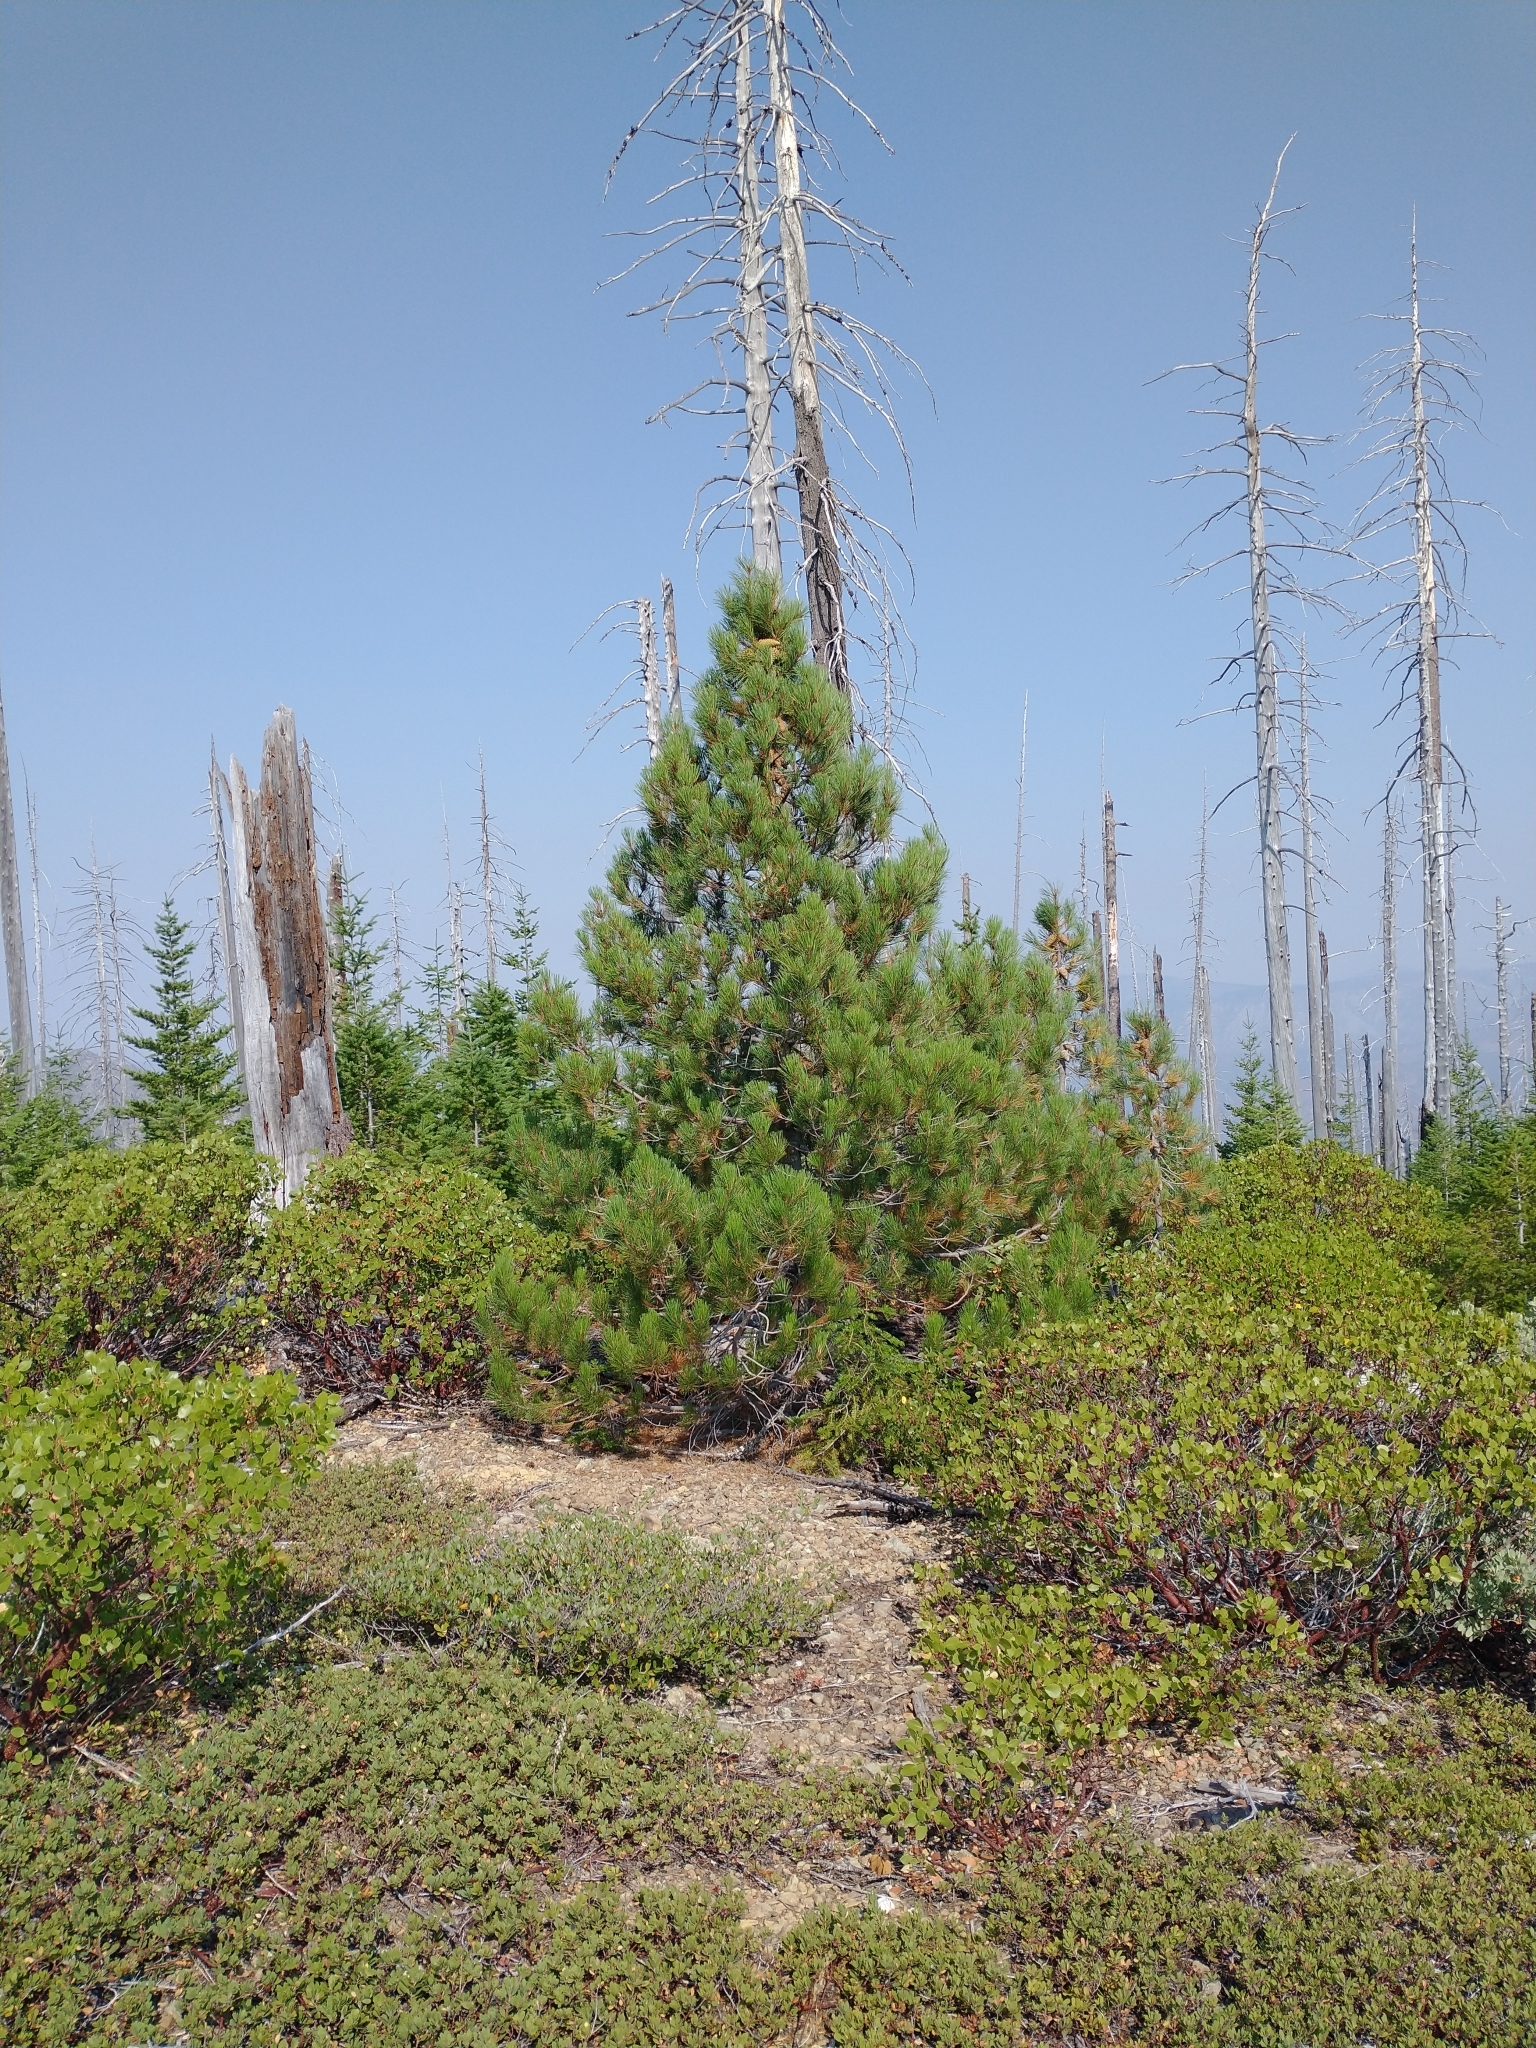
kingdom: Plantae
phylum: Tracheophyta
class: Pinopsida
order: Pinales
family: Pinaceae
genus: Pinus
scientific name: Pinus attenuata
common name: Knobcone pine
